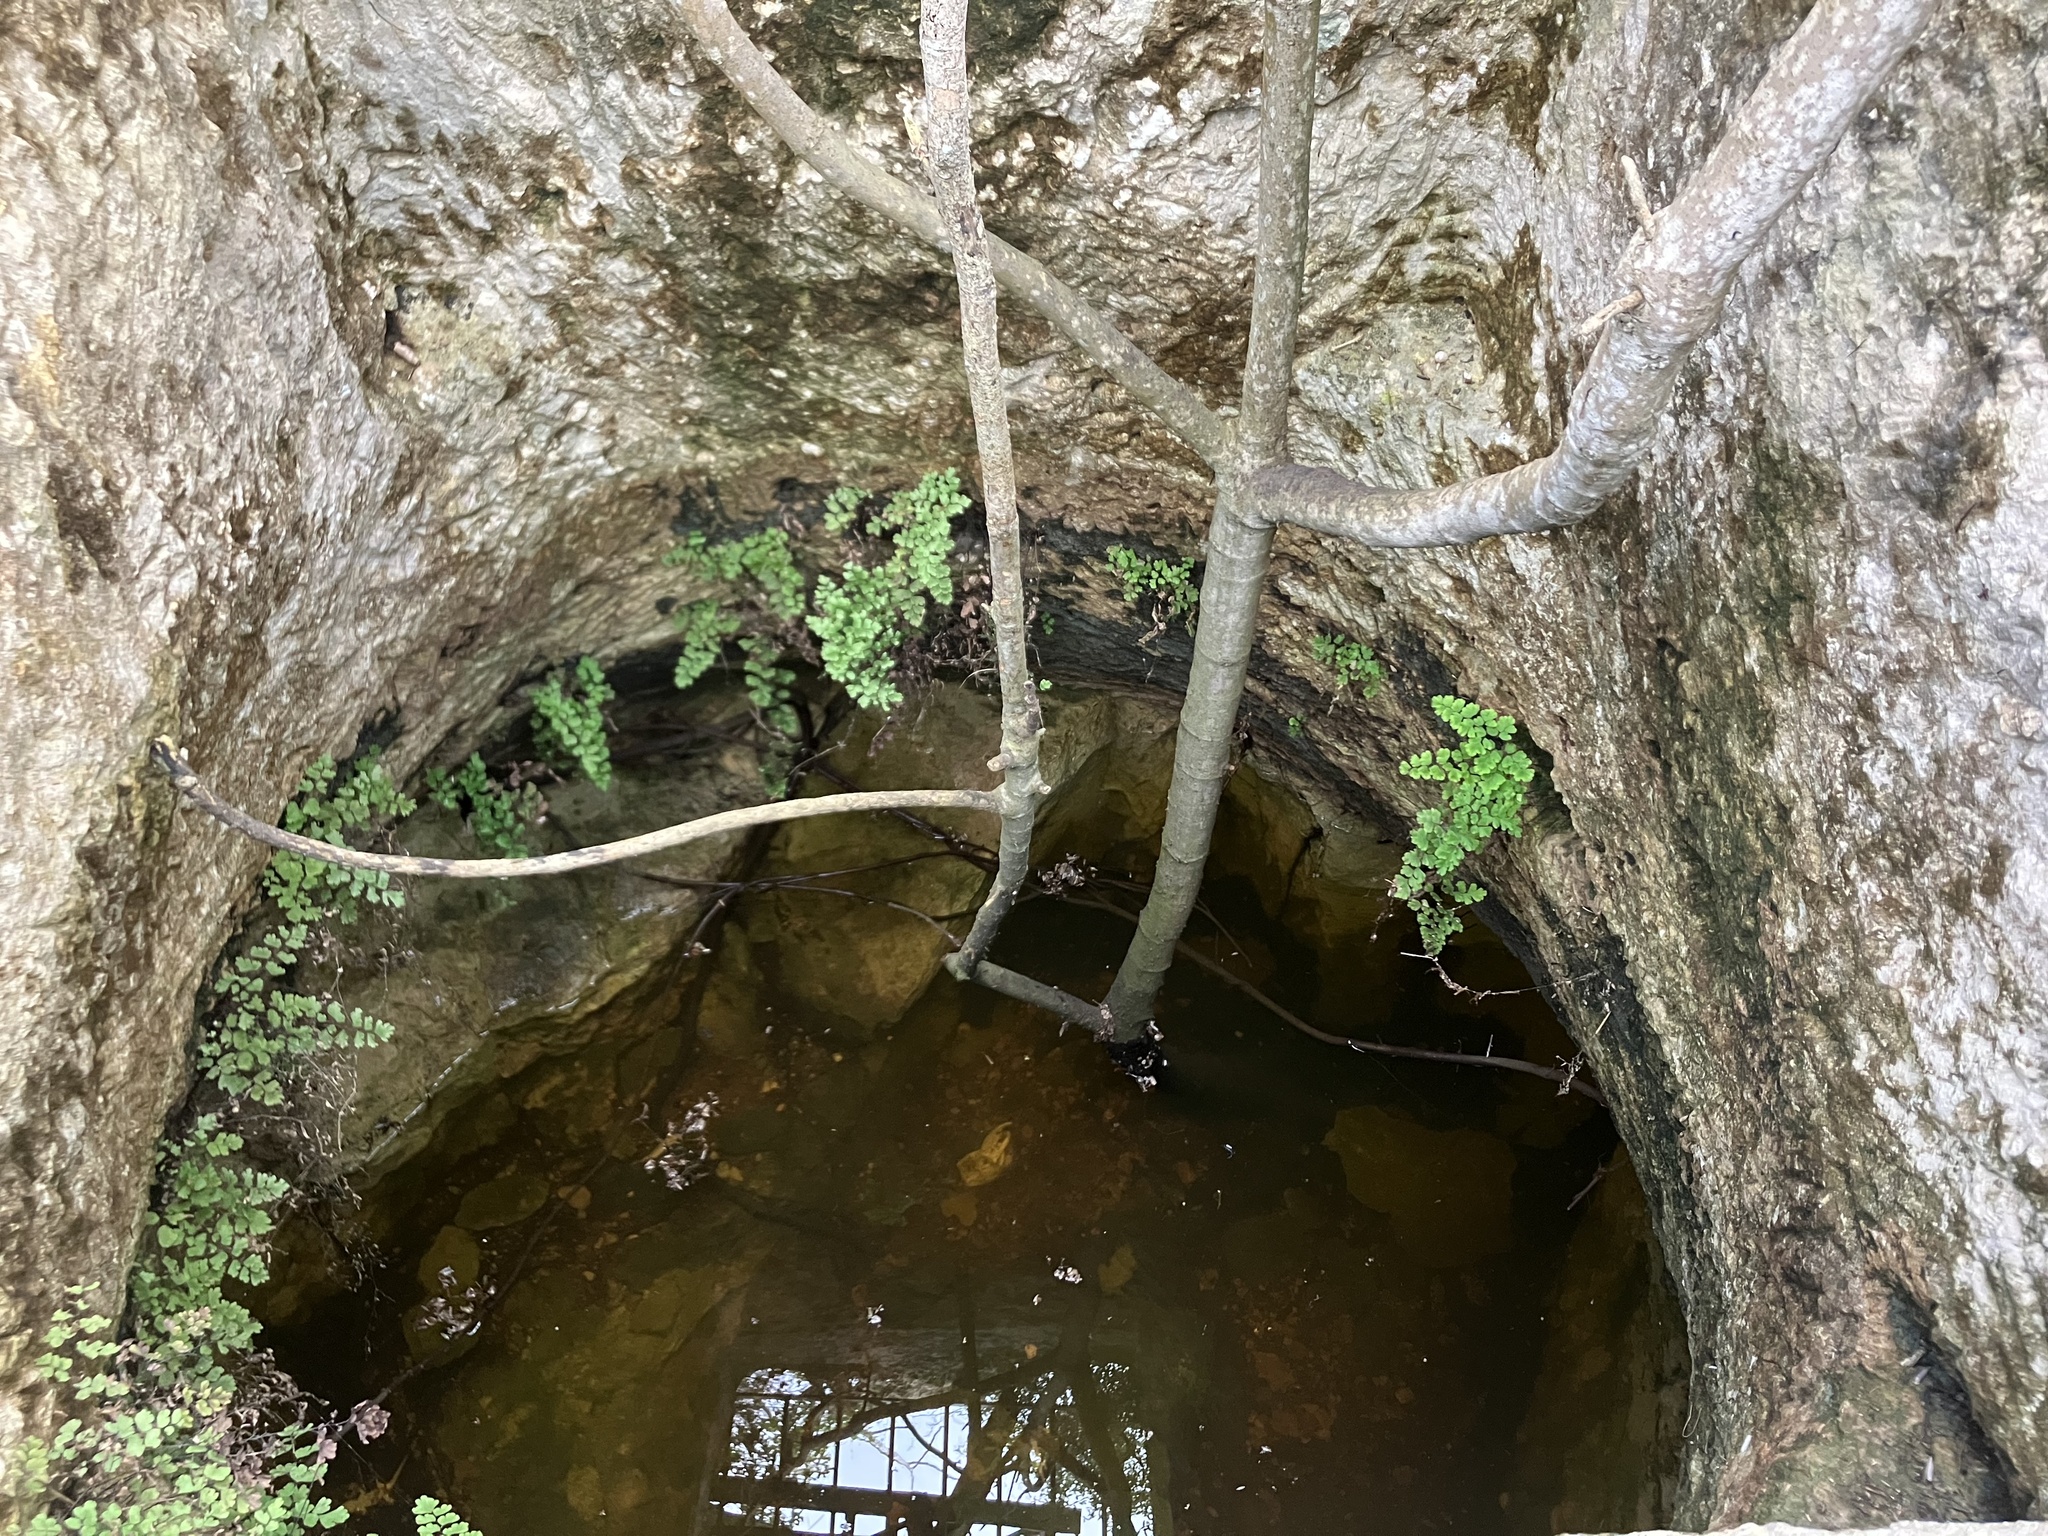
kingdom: Plantae
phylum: Tracheophyta
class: Polypodiopsida
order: Polypodiales
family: Pteridaceae
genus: Adiantum
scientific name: Adiantum capillus-veneris
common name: Maidenhair fern
